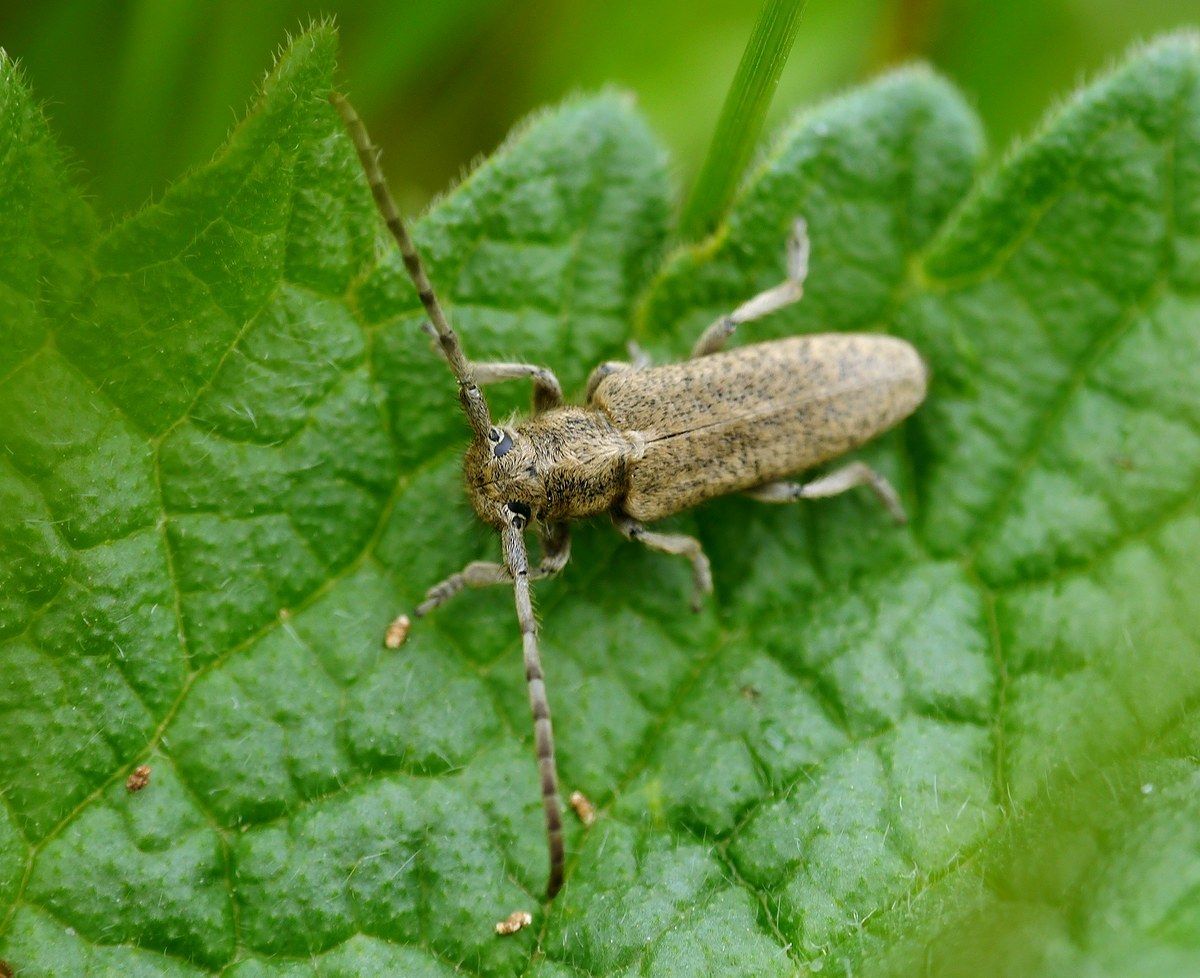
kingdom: Animalia
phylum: Arthropoda
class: Insecta
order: Coleoptera
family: Cerambycidae
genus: Phytoecia
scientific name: Phytoecia hirsutula
